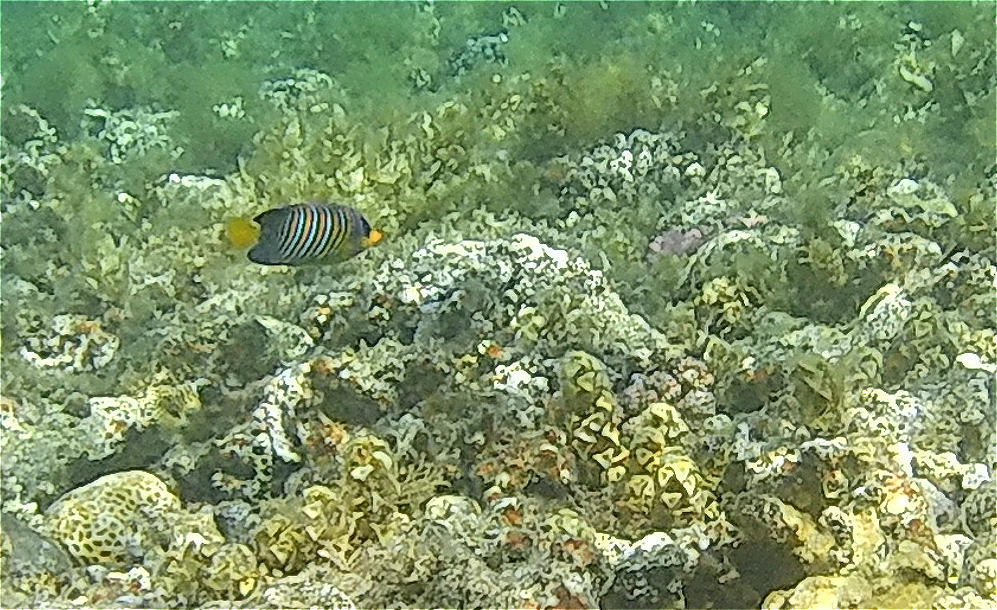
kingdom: Animalia
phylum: Chordata
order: Perciformes
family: Pomacanthidae
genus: Pygoplites
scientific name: Pygoplites diacanthus
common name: Regal angelfish
